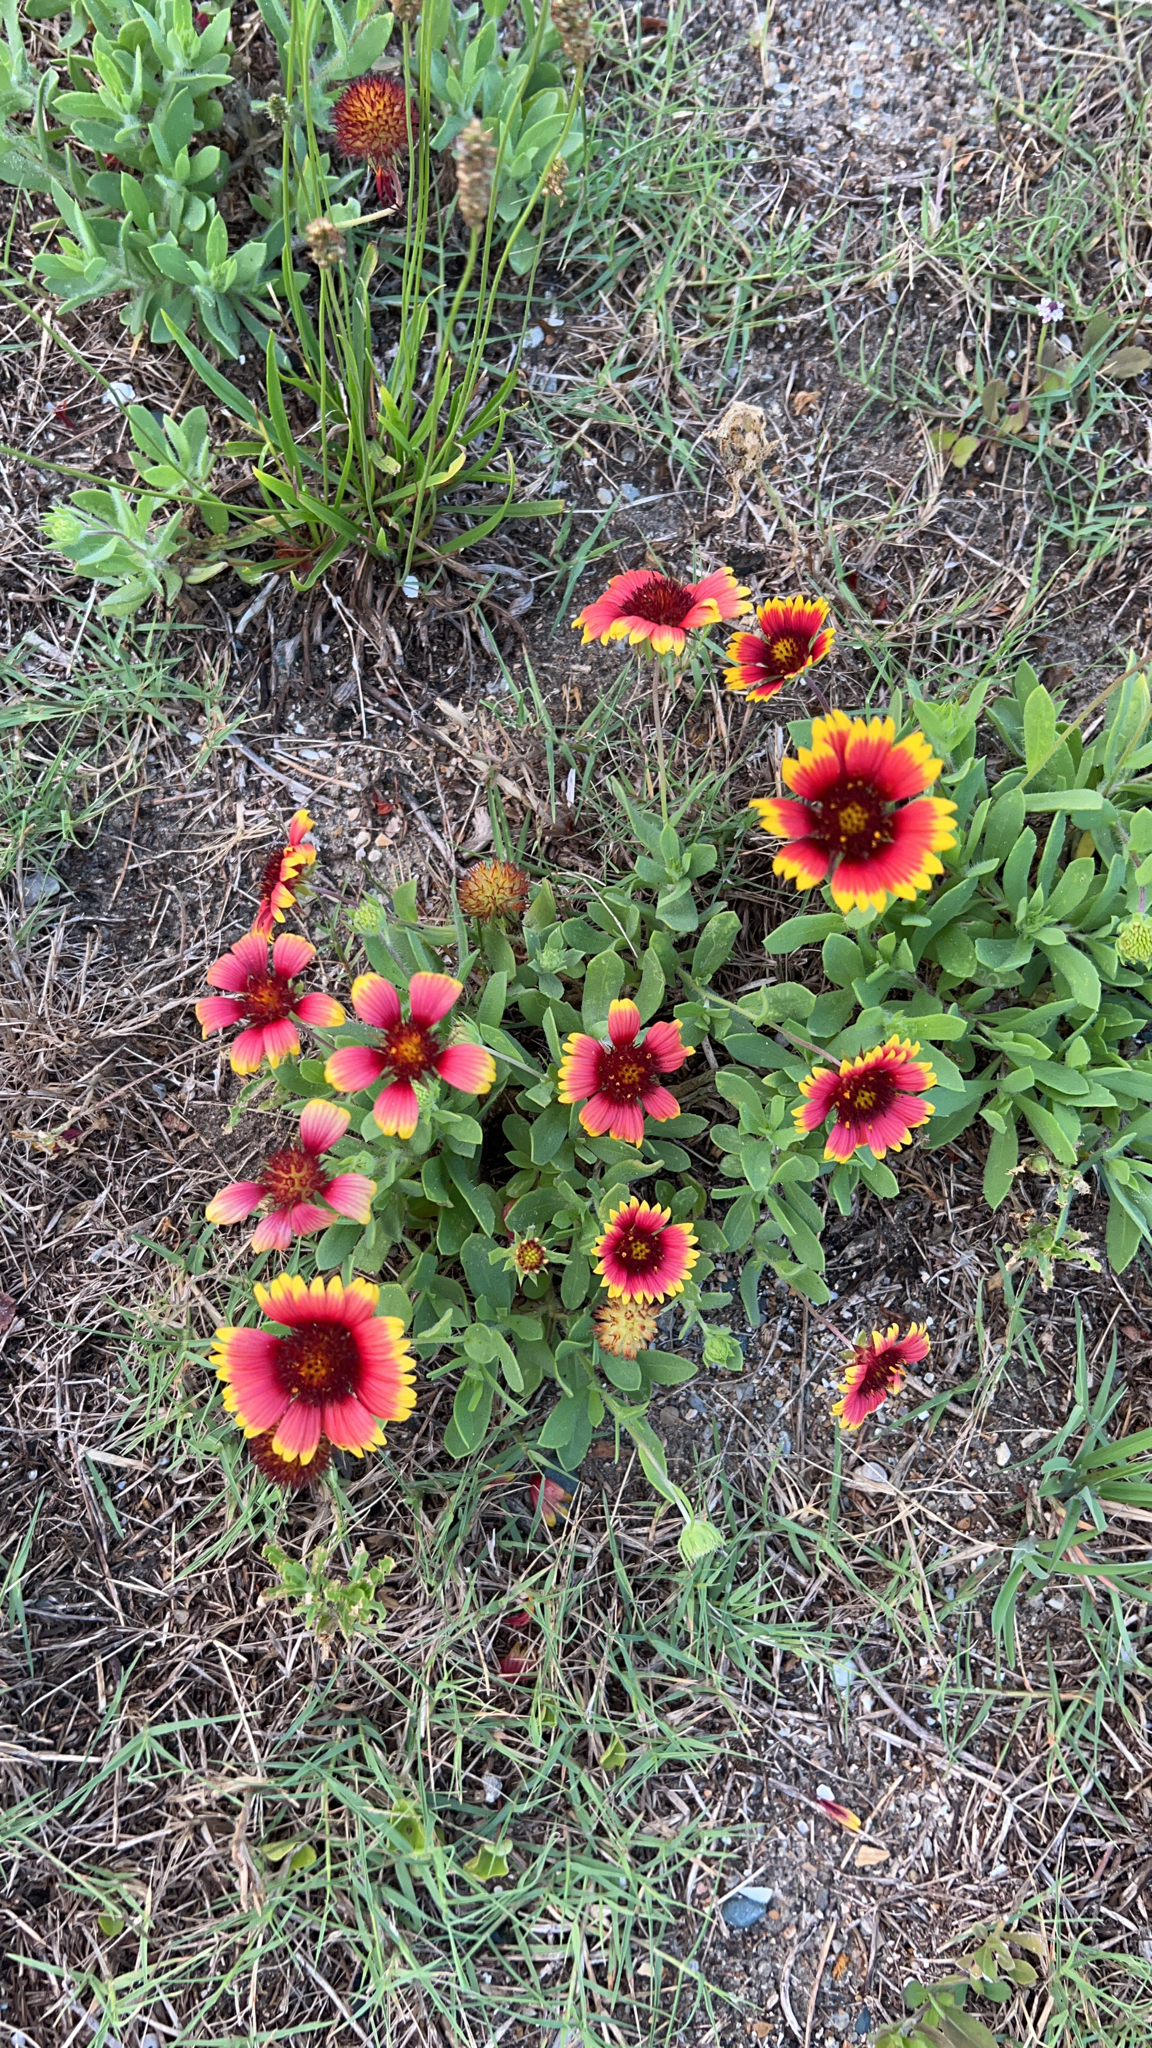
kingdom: Plantae
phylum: Tracheophyta
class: Magnoliopsida
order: Asterales
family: Asteraceae
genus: Gaillardia
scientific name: Gaillardia pulchella
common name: Firewheel
